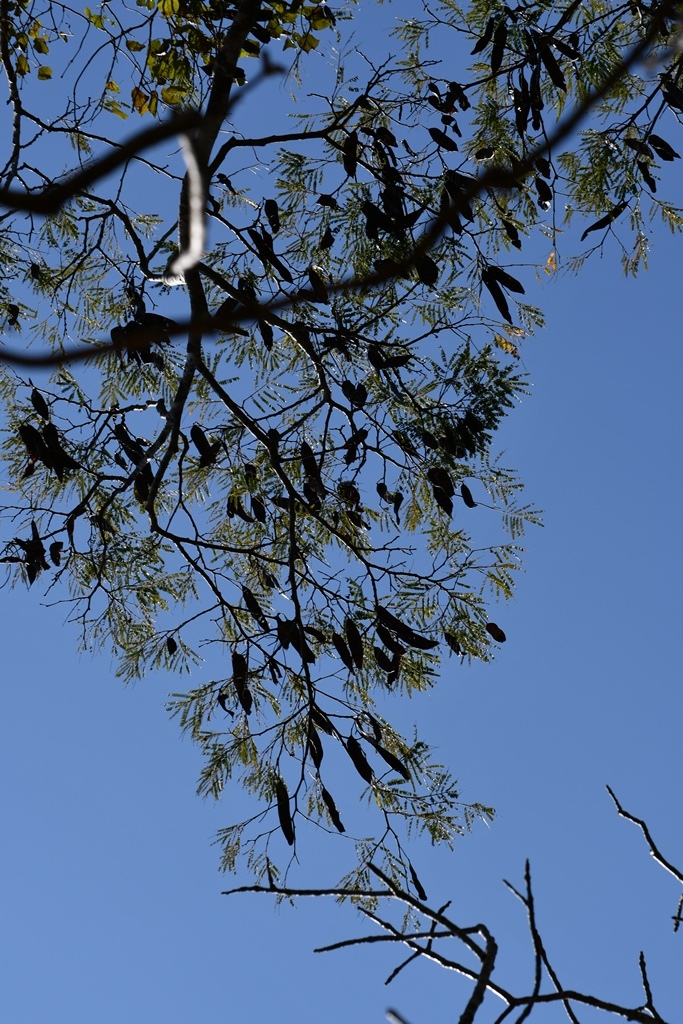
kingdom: Plantae
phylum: Tracheophyta
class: Magnoliopsida
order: Fabales
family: Fabaceae
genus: Lysiloma
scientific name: Lysiloma auritum
